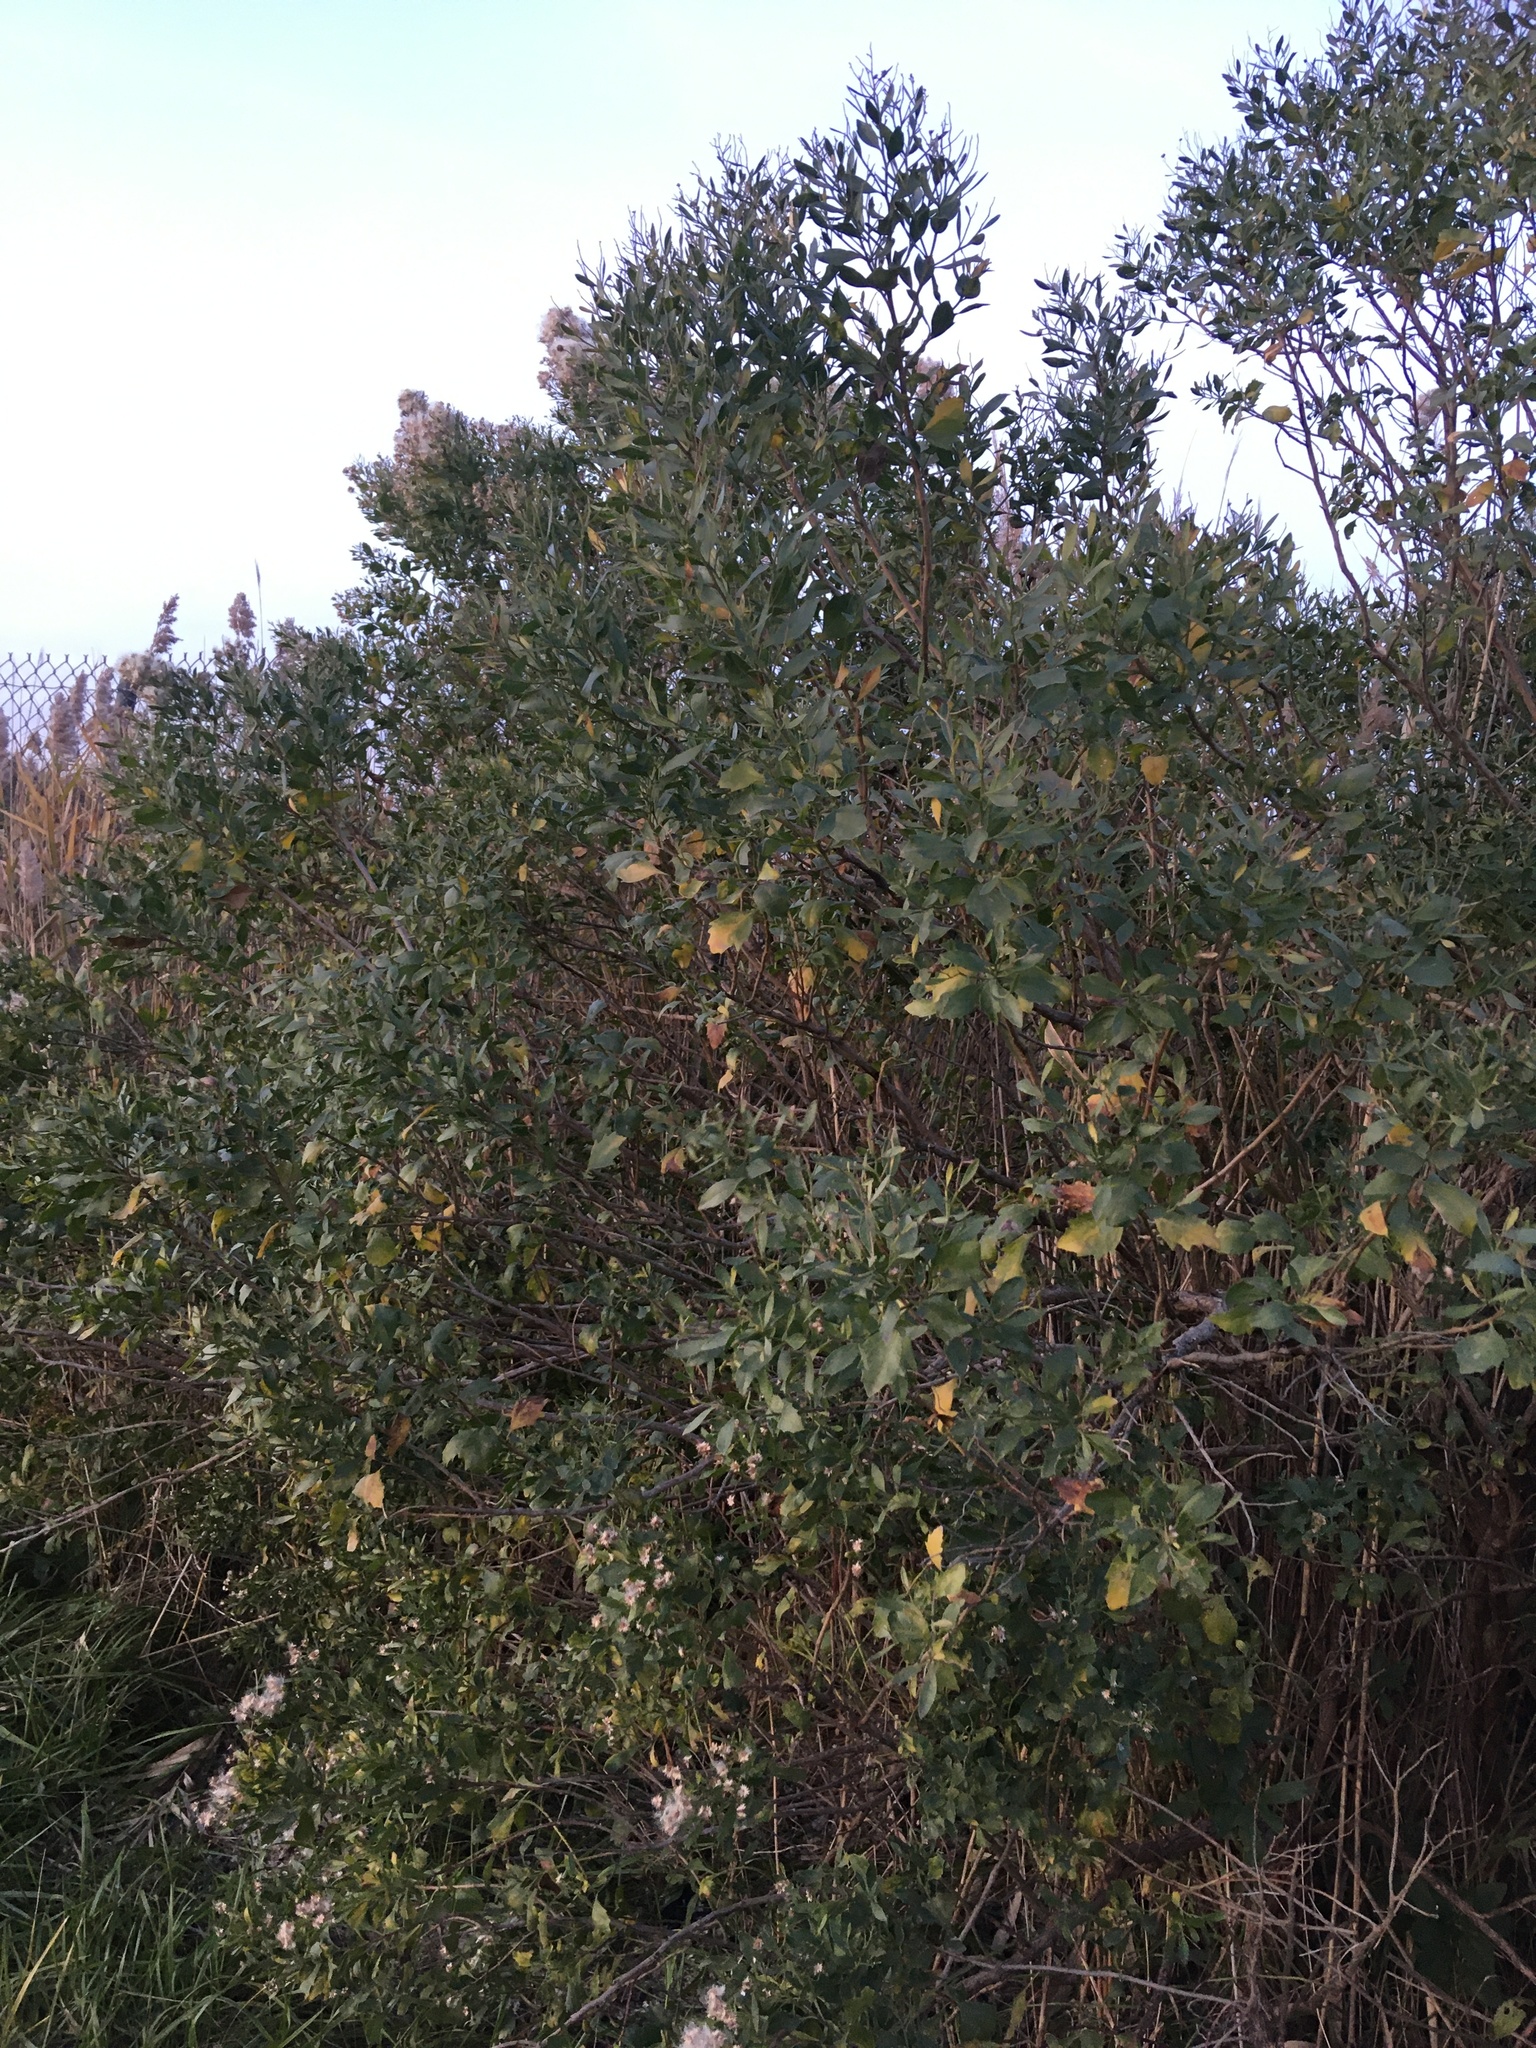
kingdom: Plantae
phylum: Tracheophyta
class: Magnoliopsida
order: Asterales
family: Asteraceae
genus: Baccharis
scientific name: Baccharis halimifolia
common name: Eastern baccharis
